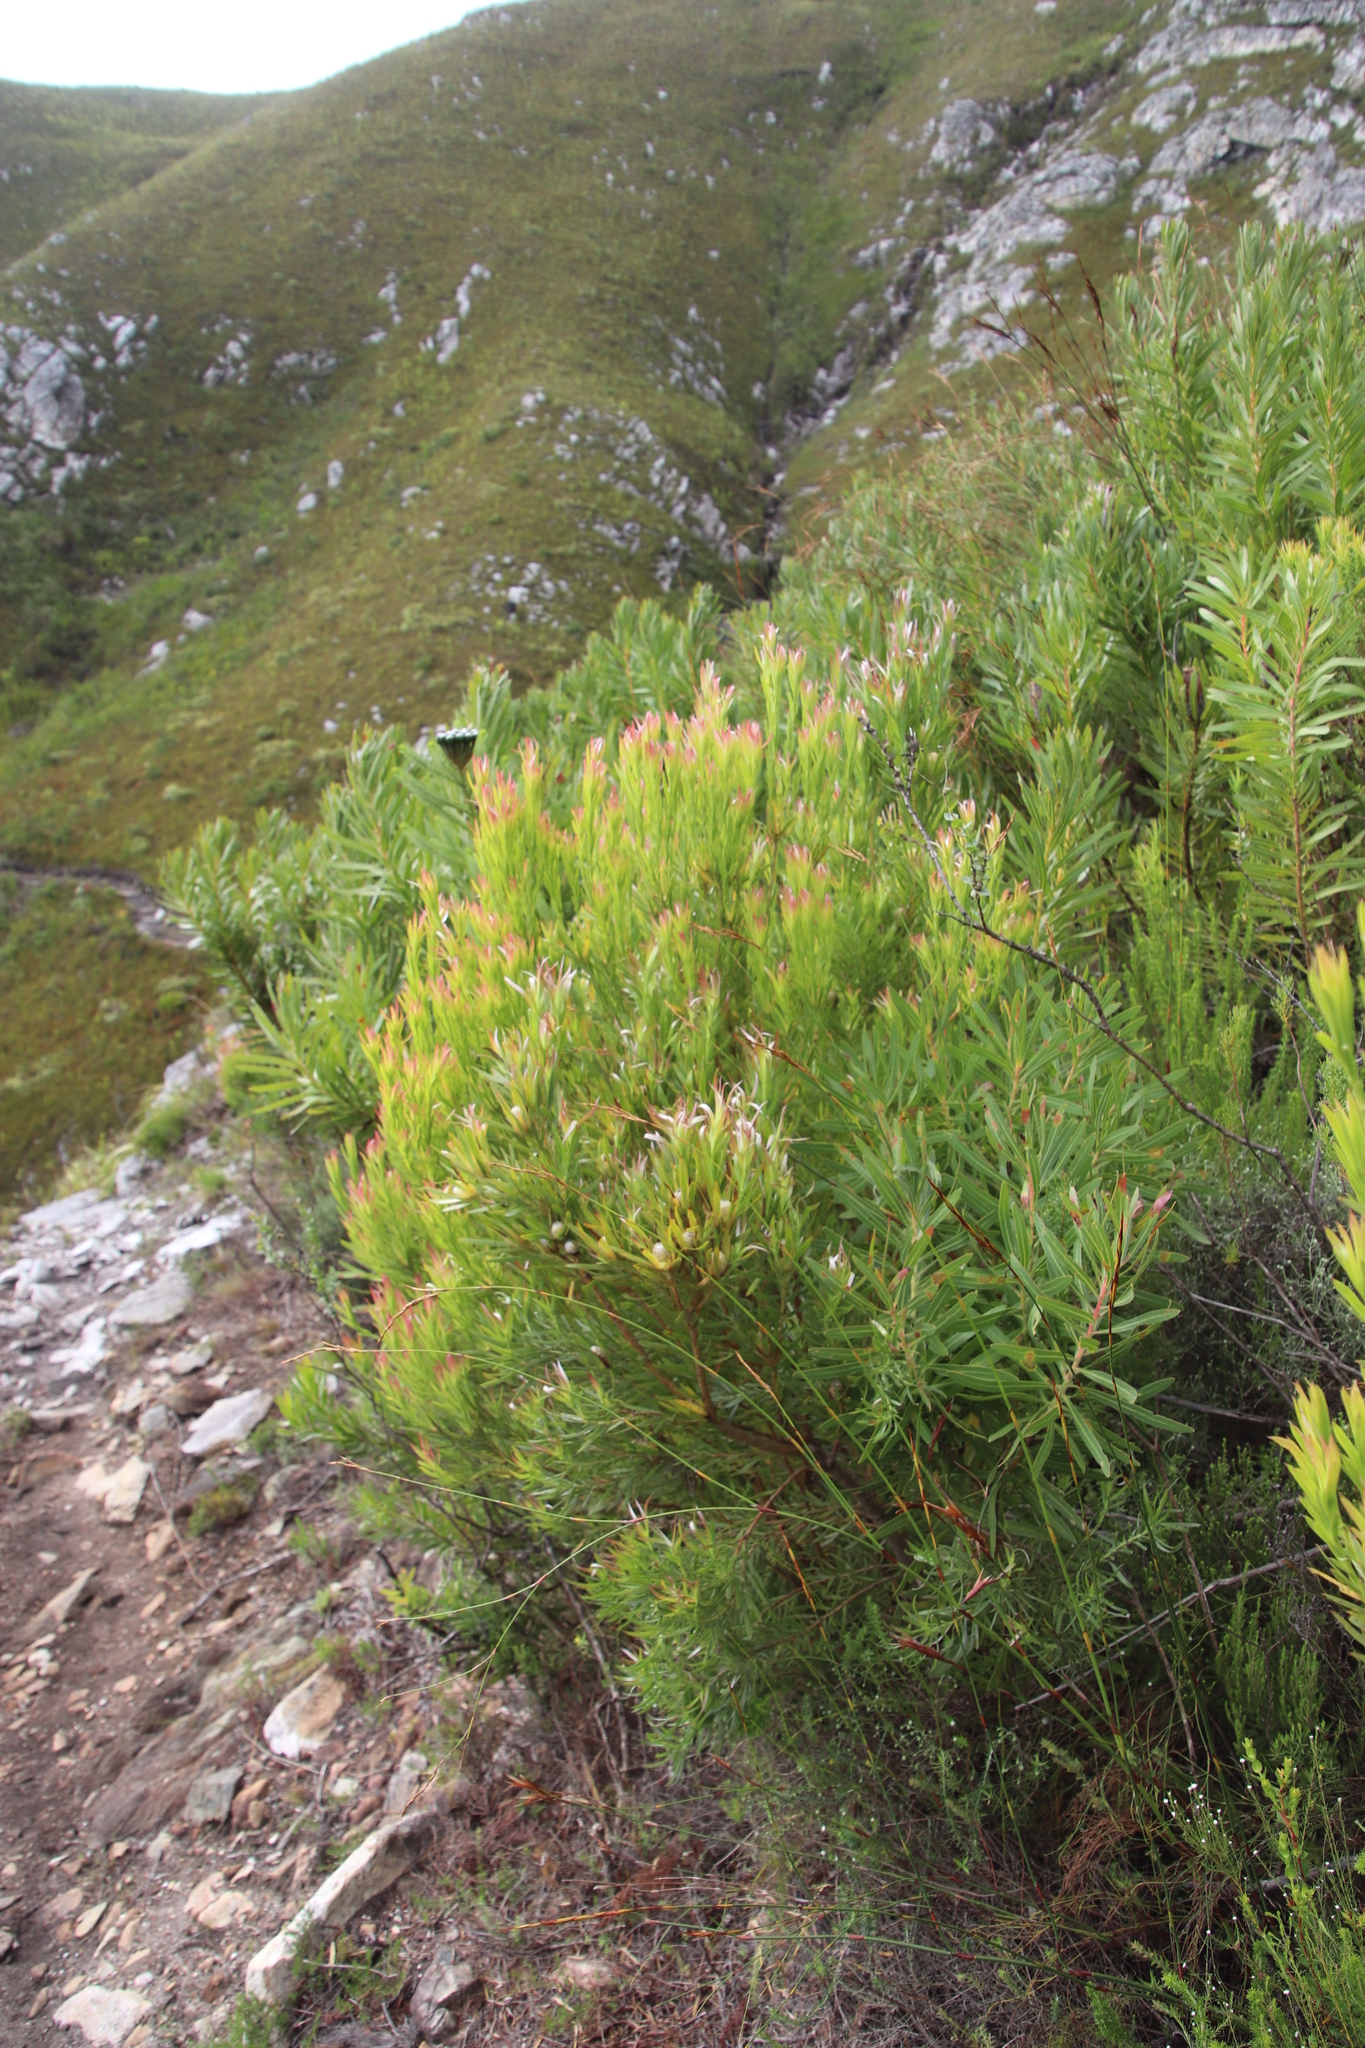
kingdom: Plantae
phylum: Tracheophyta
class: Magnoliopsida
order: Proteales
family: Proteaceae
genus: Leucadendron
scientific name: Leucadendron xanthoconus
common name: Sickle-leaf conebush
